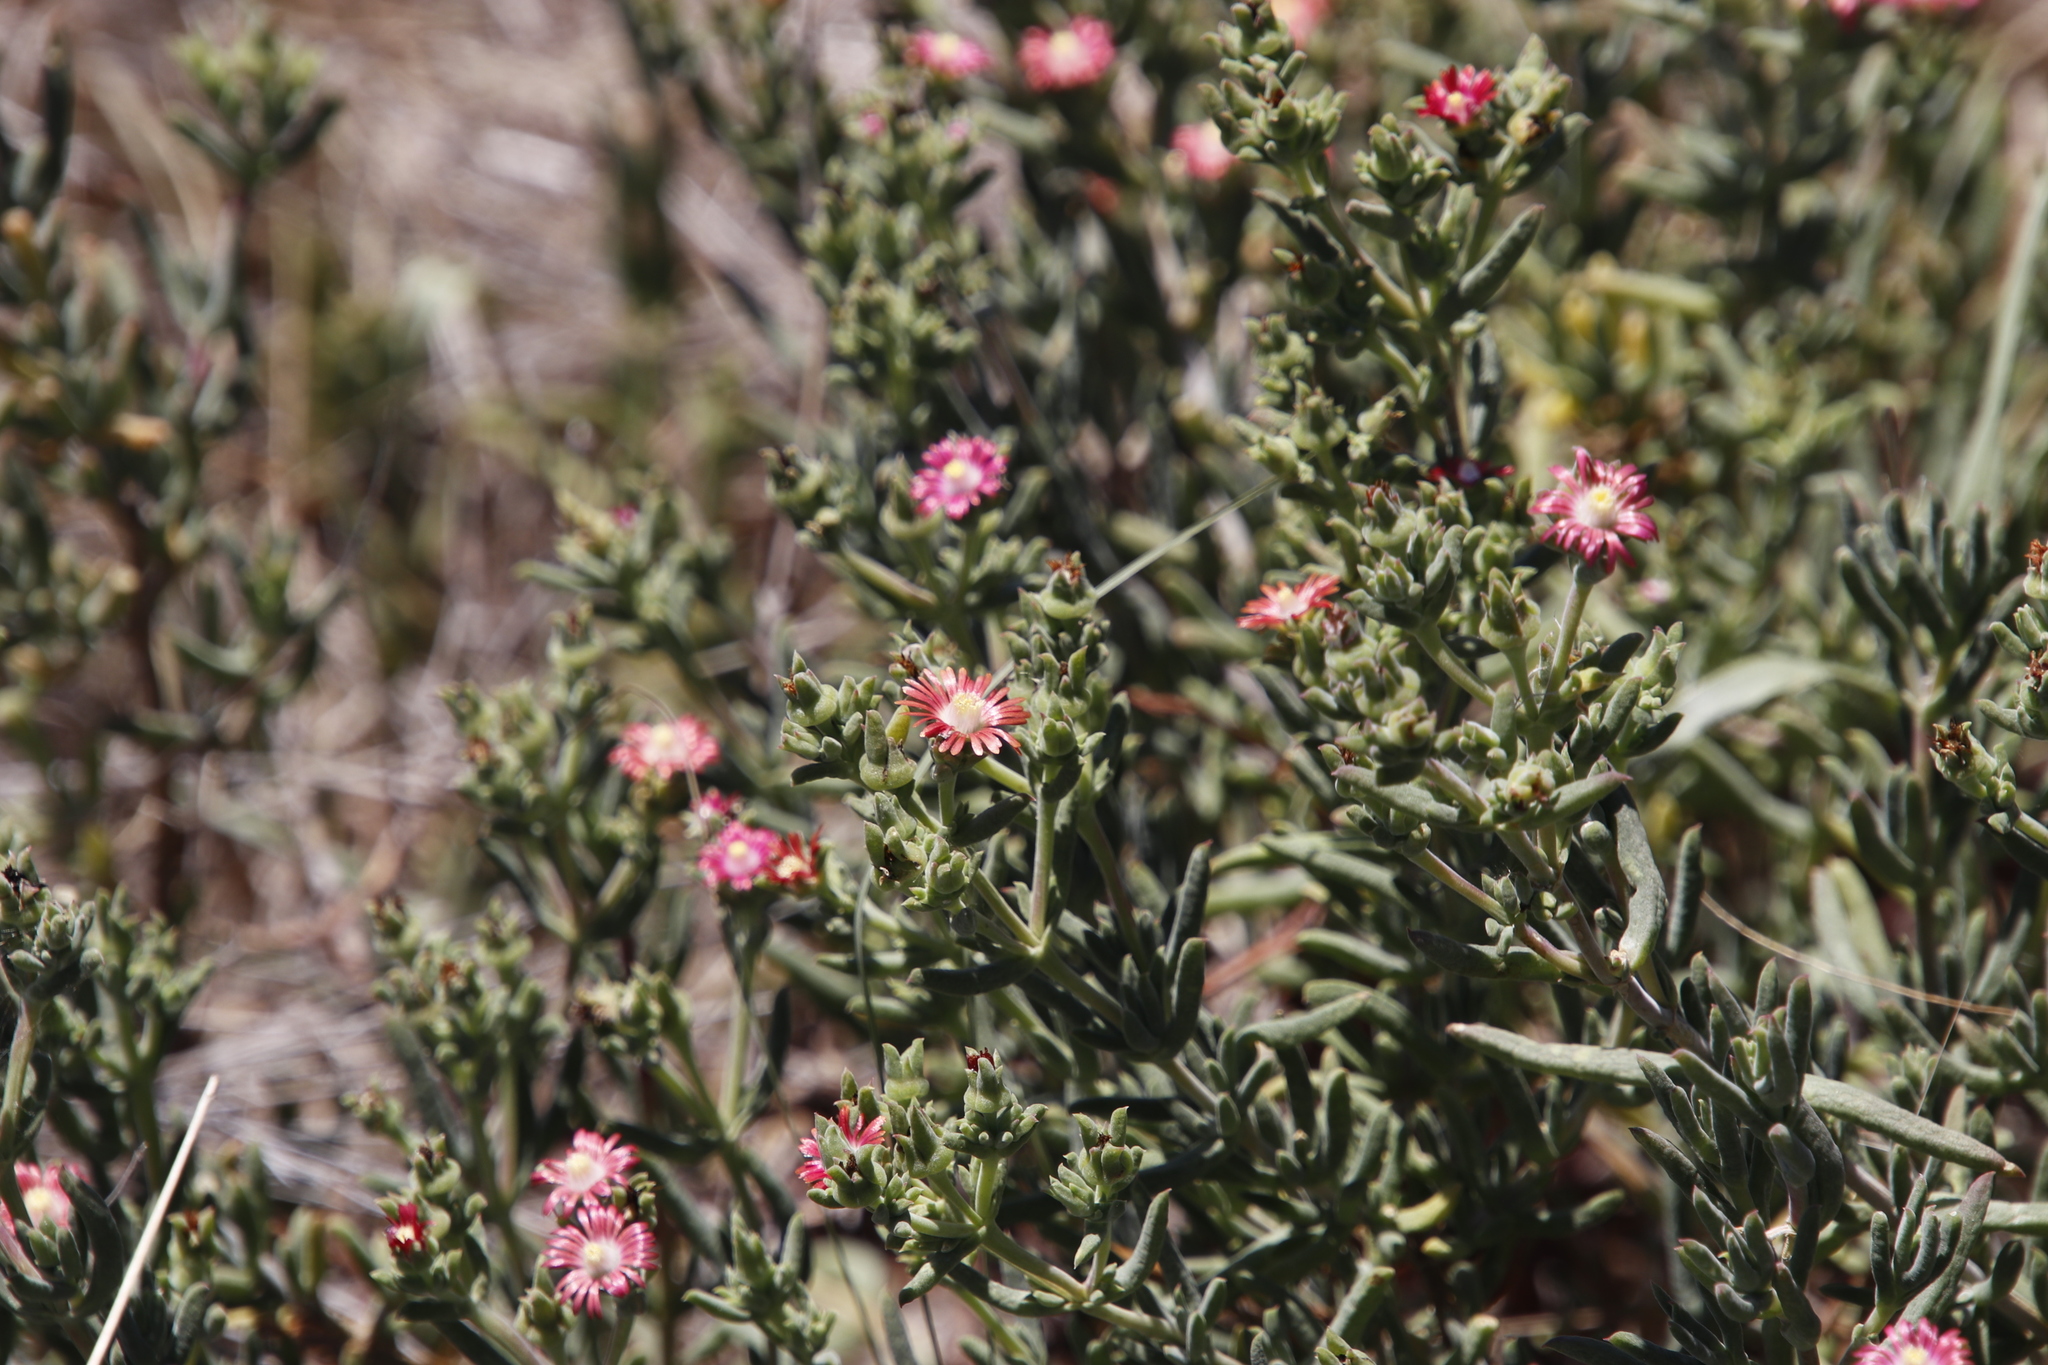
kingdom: Plantae
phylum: Tracheophyta
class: Magnoliopsida
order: Caryophyllales
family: Aizoaceae
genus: Delosperma
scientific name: Delosperma testaceum
